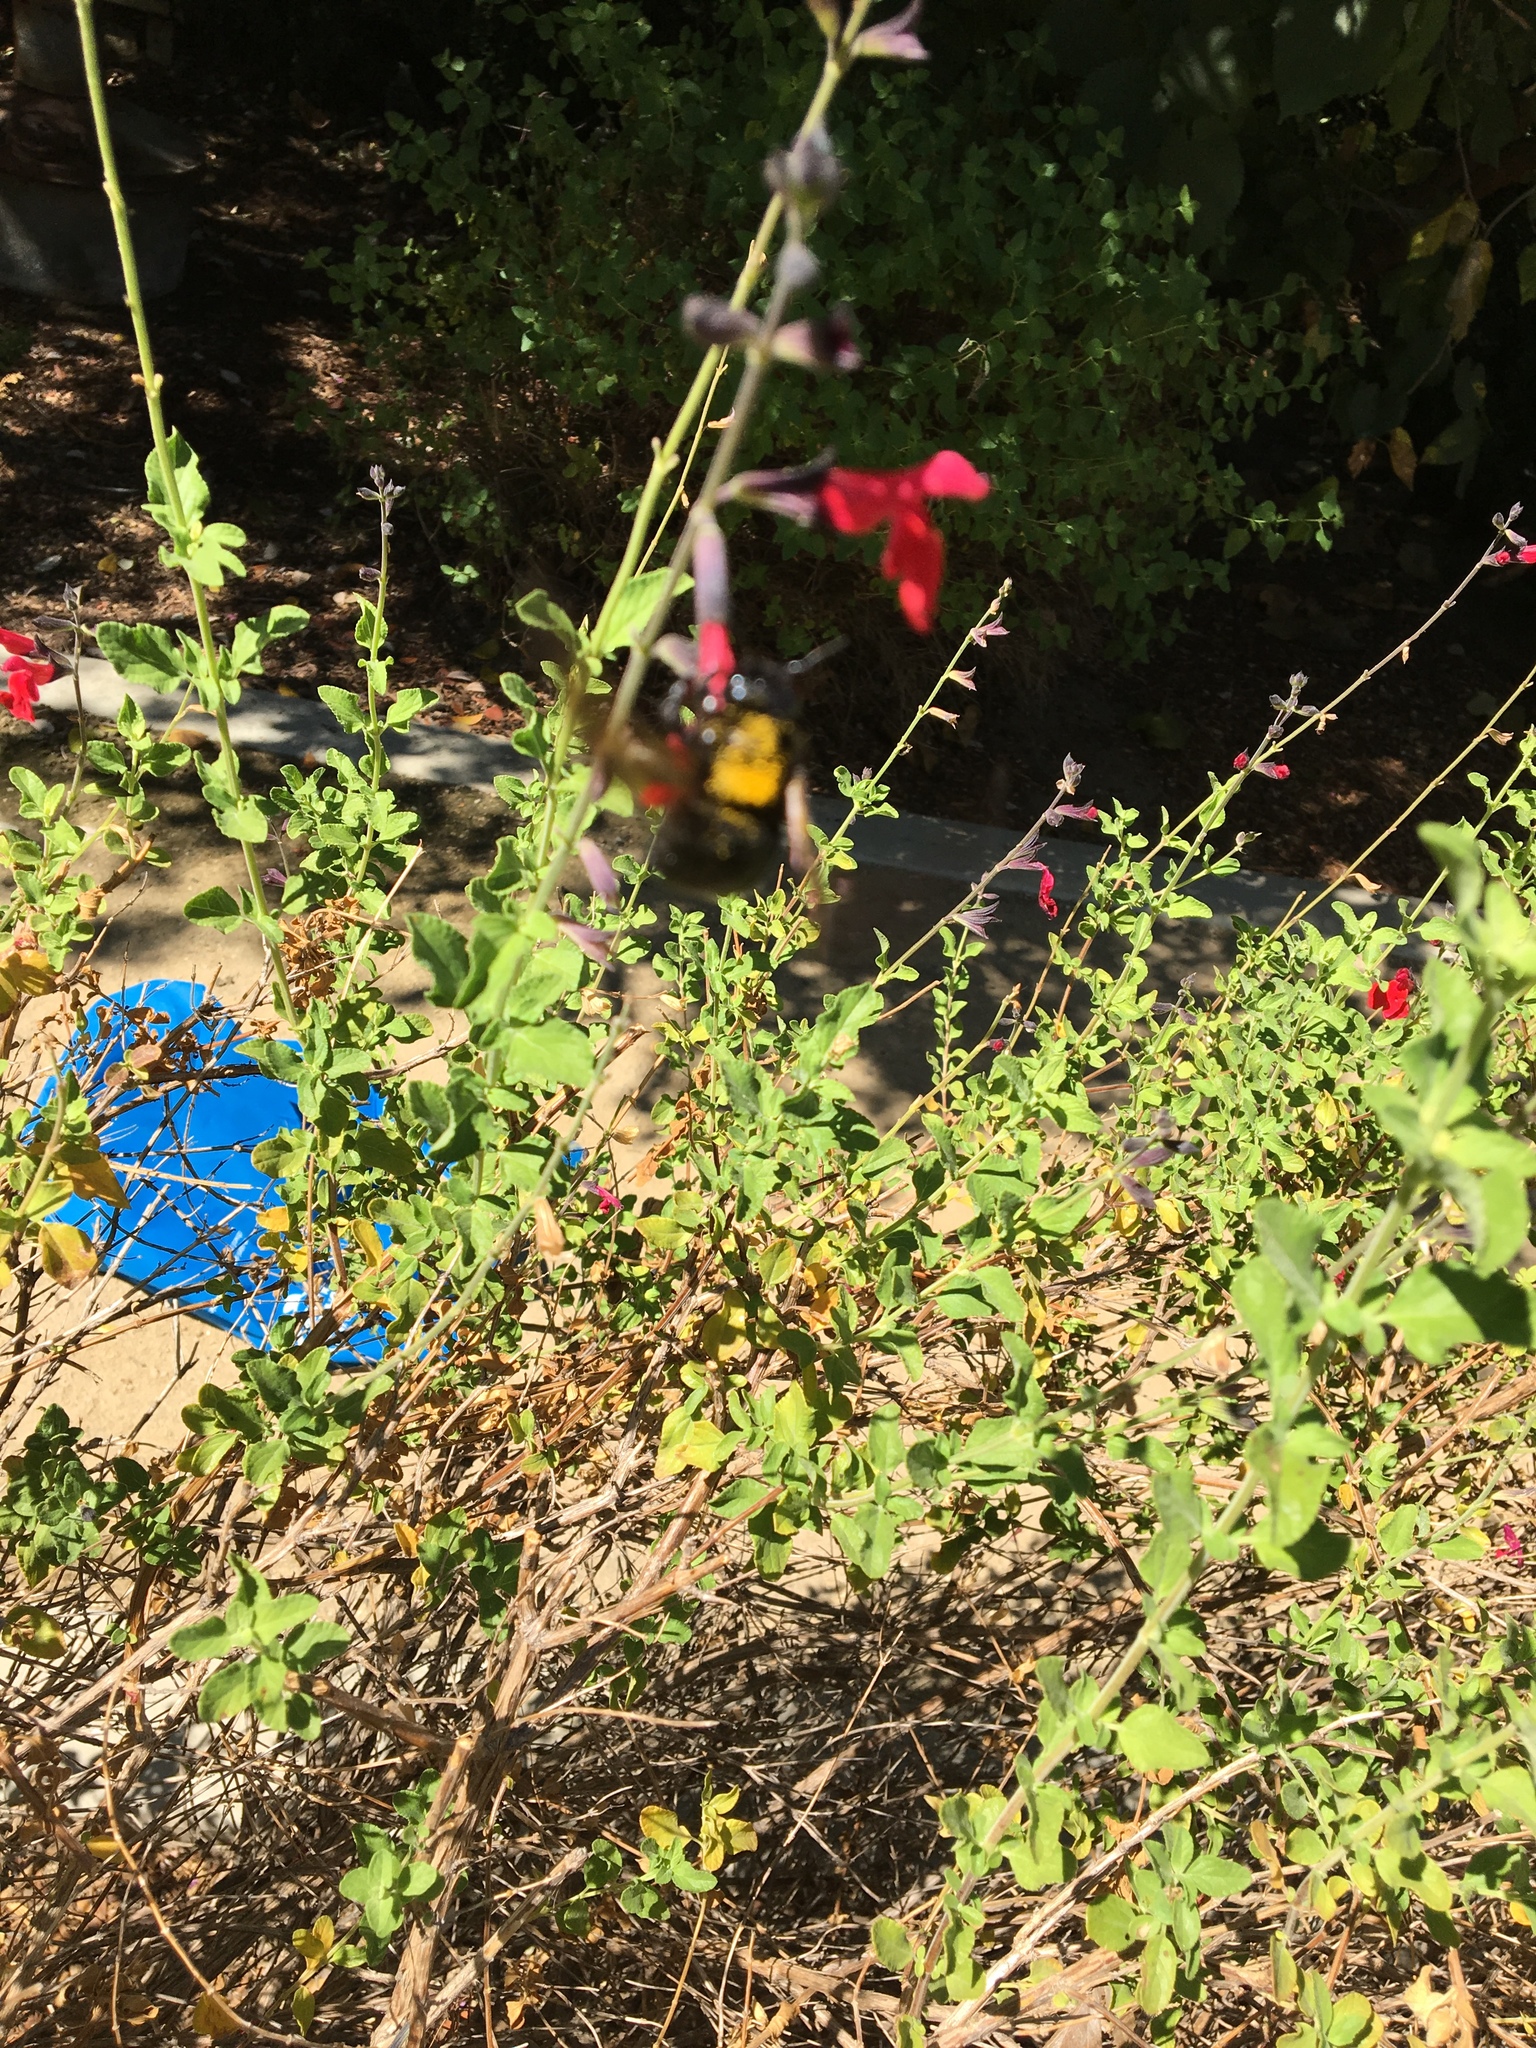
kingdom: Animalia
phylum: Arthropoda
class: Insecta
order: Hymenoptera
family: Apidae
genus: Xylocopa
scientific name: Xylocopa sonorina
